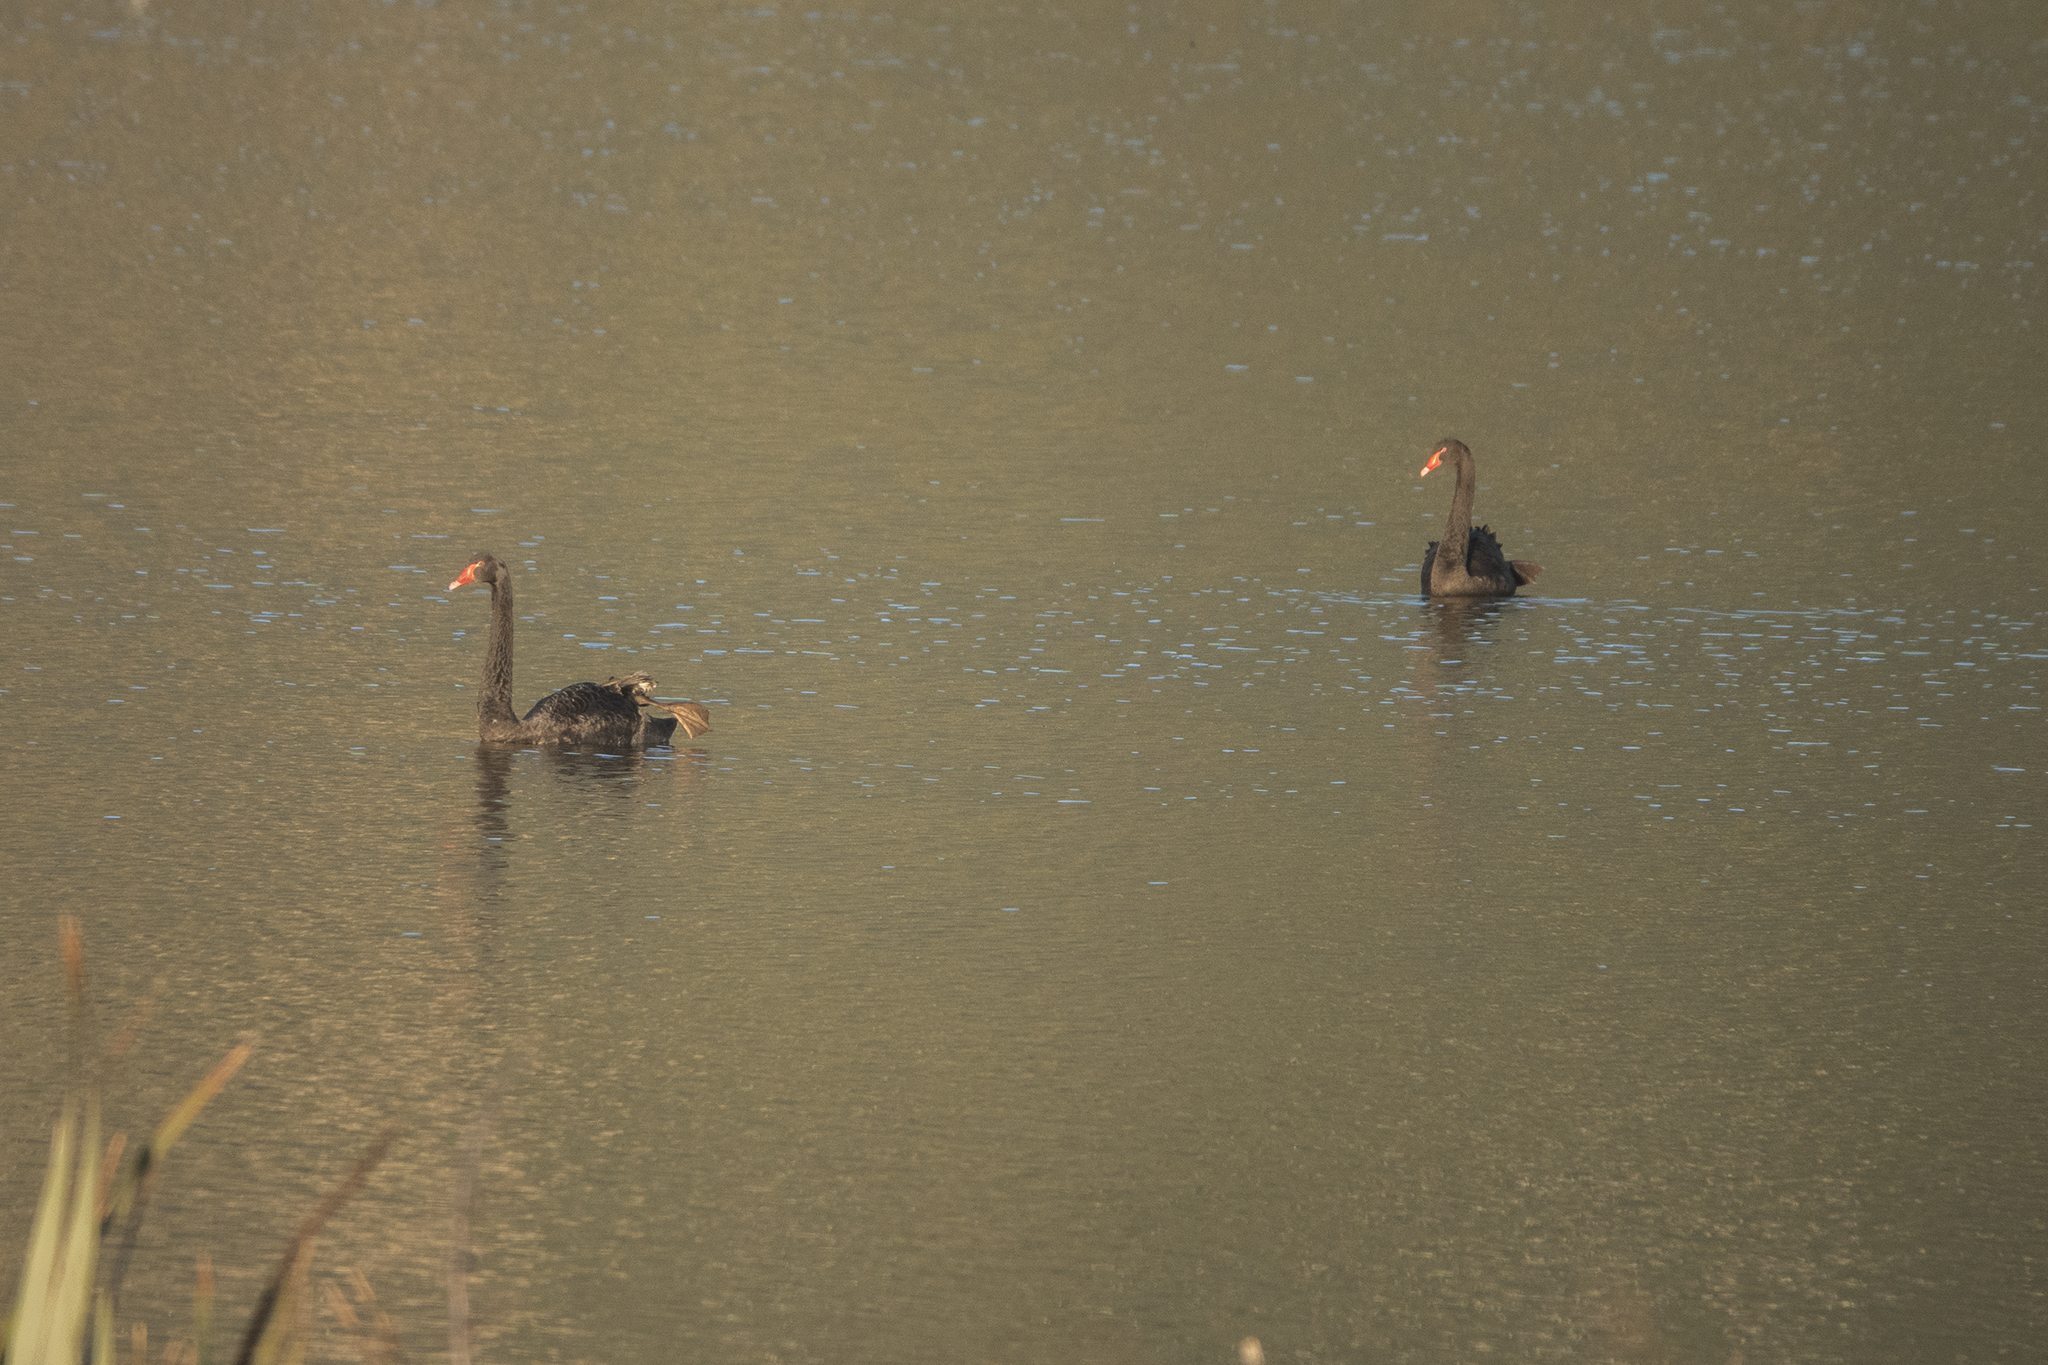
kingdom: Animalia
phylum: Chordata
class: Aves
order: Anseriformes
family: Anatidae
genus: Cygnus
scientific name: Cygnus atratus
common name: Black swan
